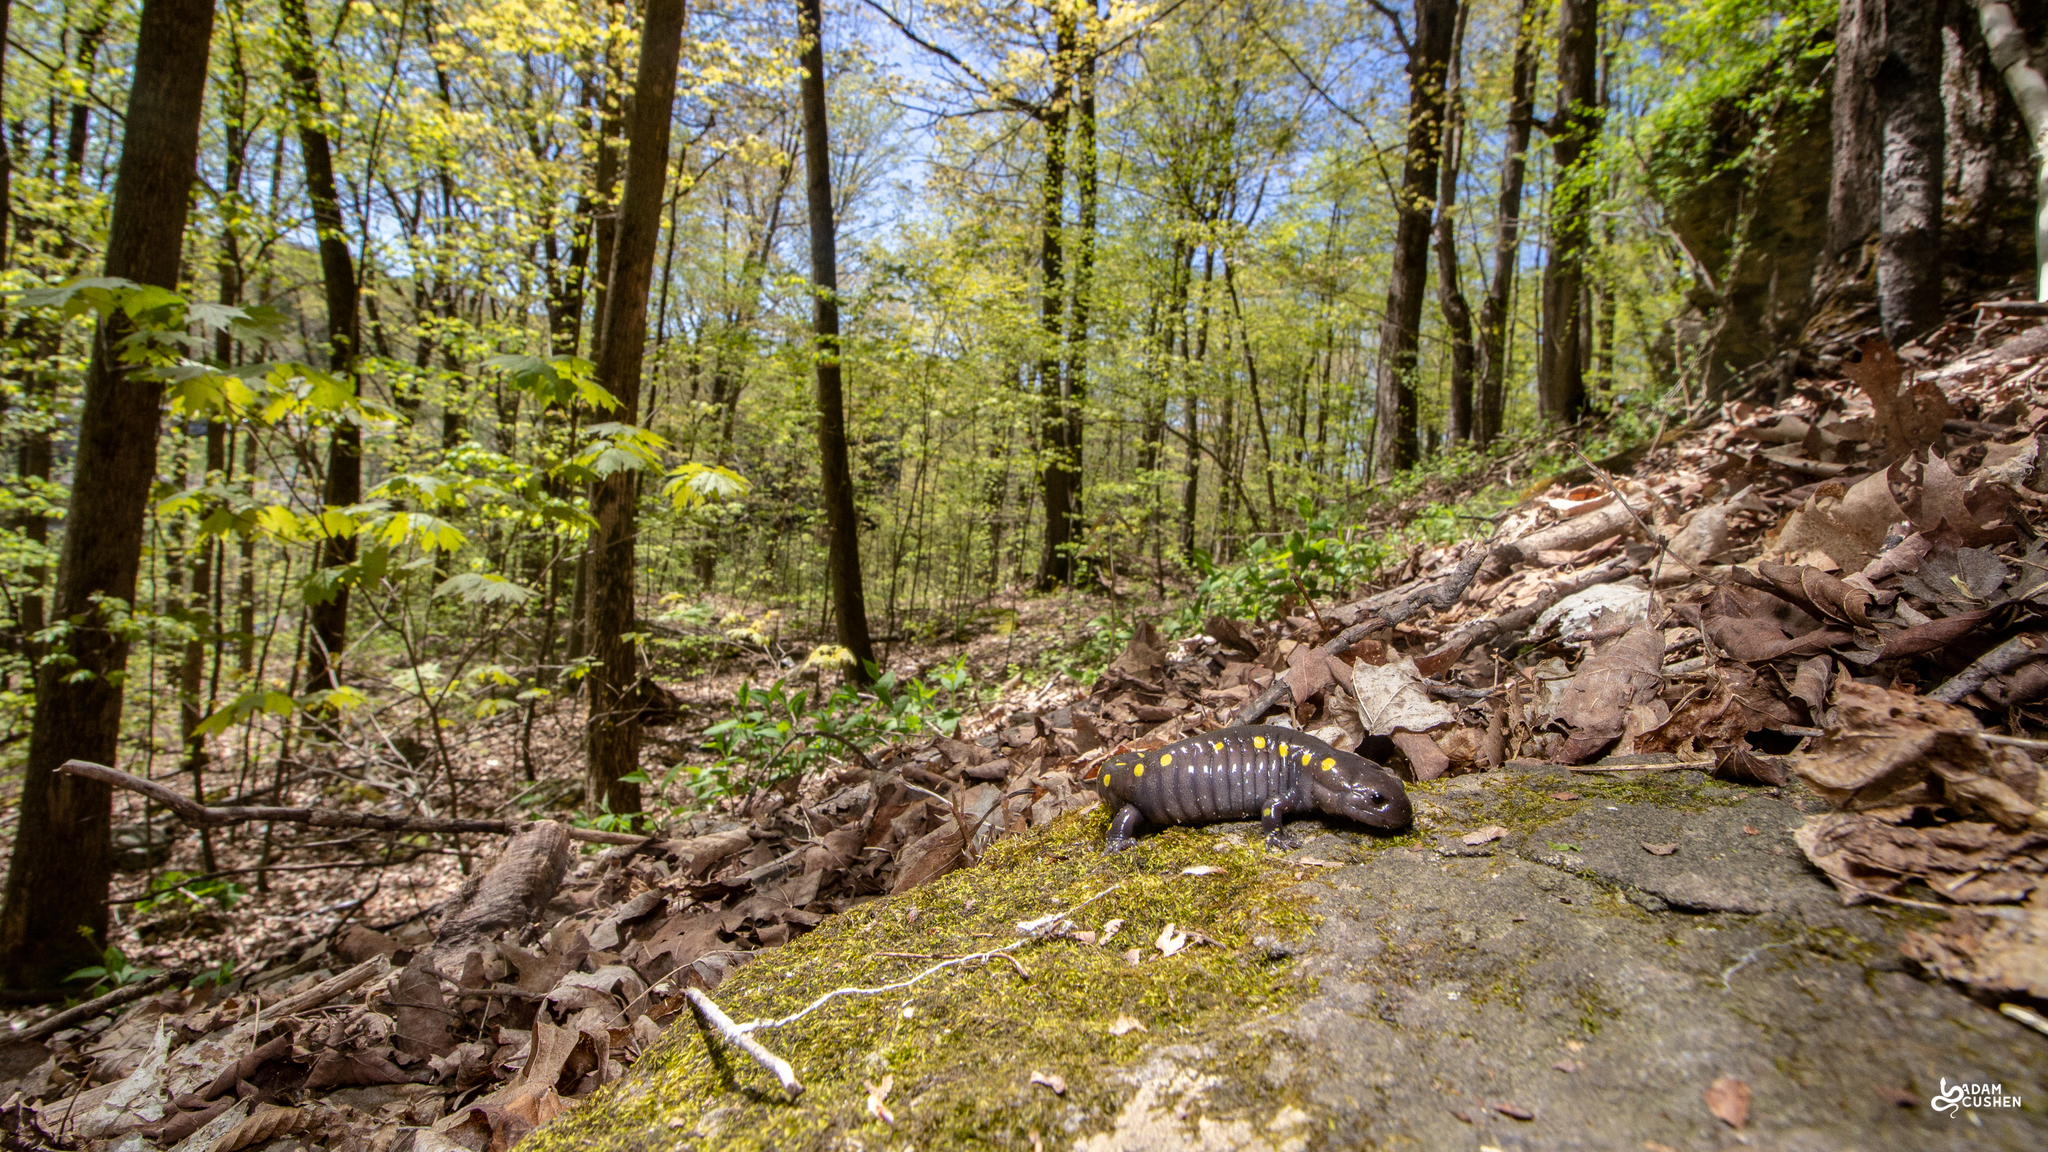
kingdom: Animalia
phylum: Chordata
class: Amphibia
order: Caudata
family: Ambystomatidae
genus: Ambystoma
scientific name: Ambystoma maculatum
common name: Spotted salamander
